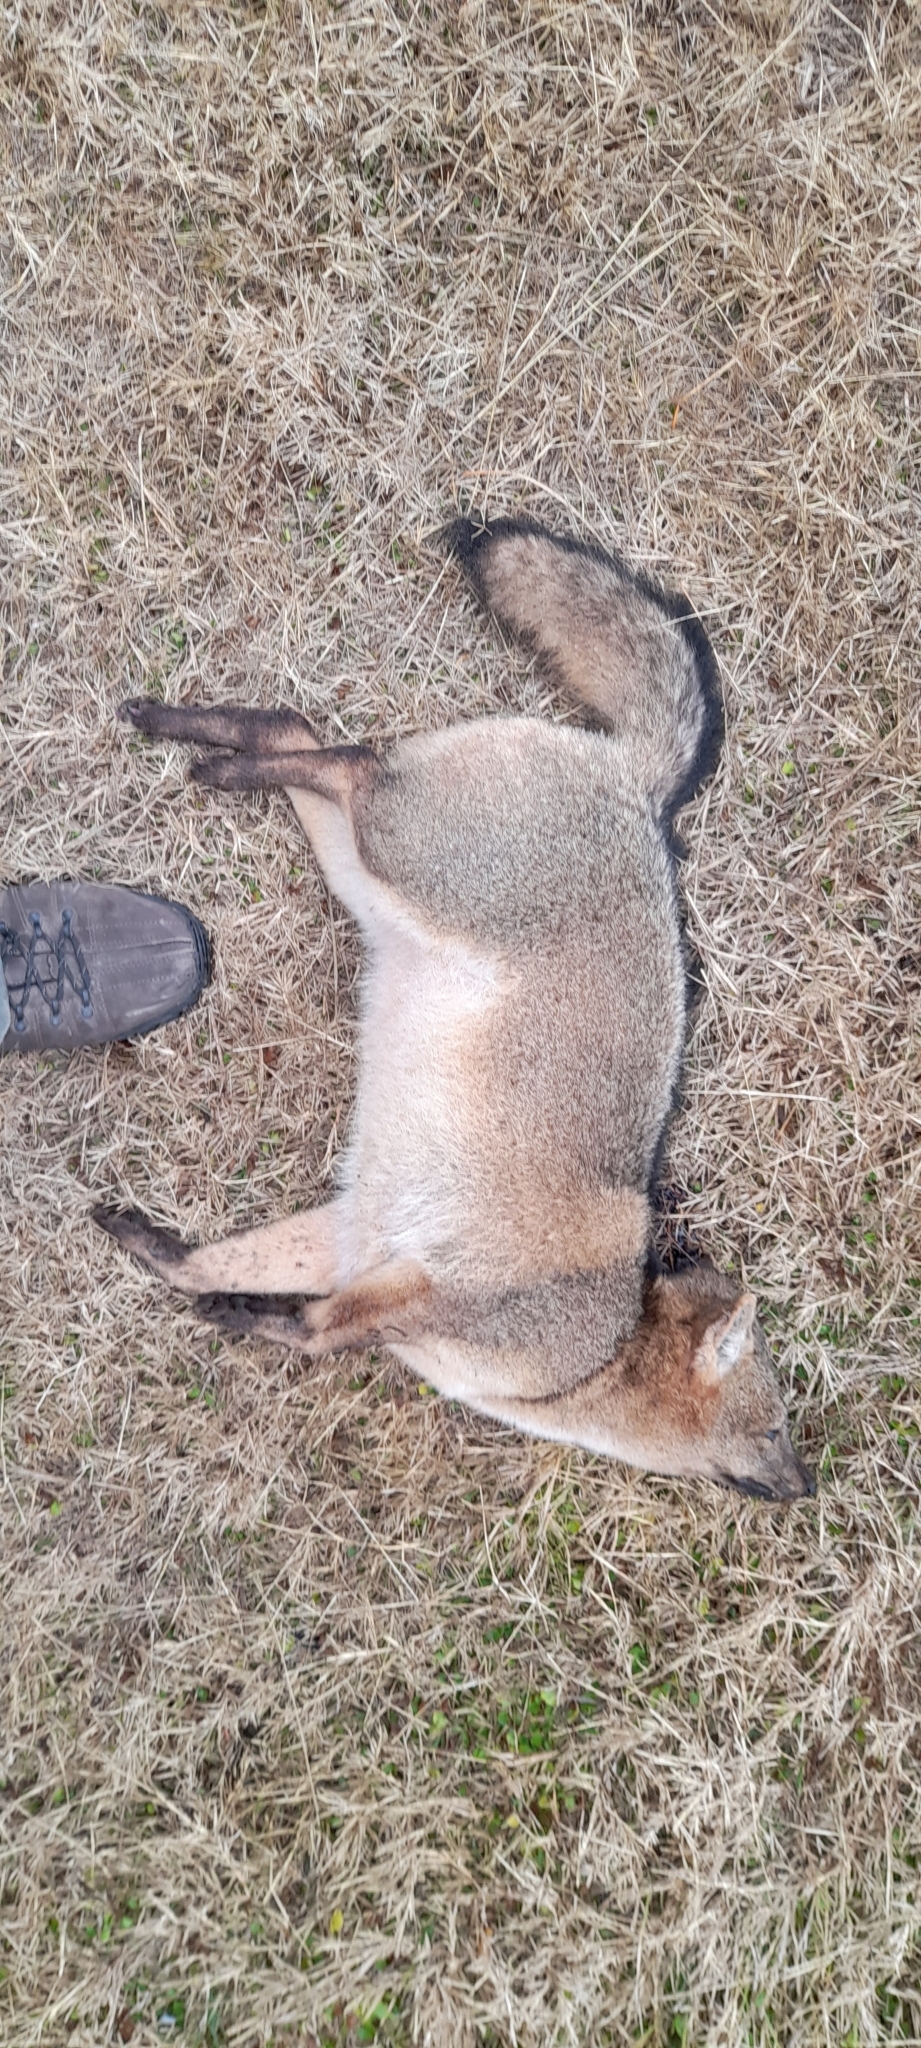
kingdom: Animalia
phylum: Chordata
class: Mammalia
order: Carnivora
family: Canidae
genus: Cerdocyon
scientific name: Cerdocyon thous
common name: Crab-eating fox
